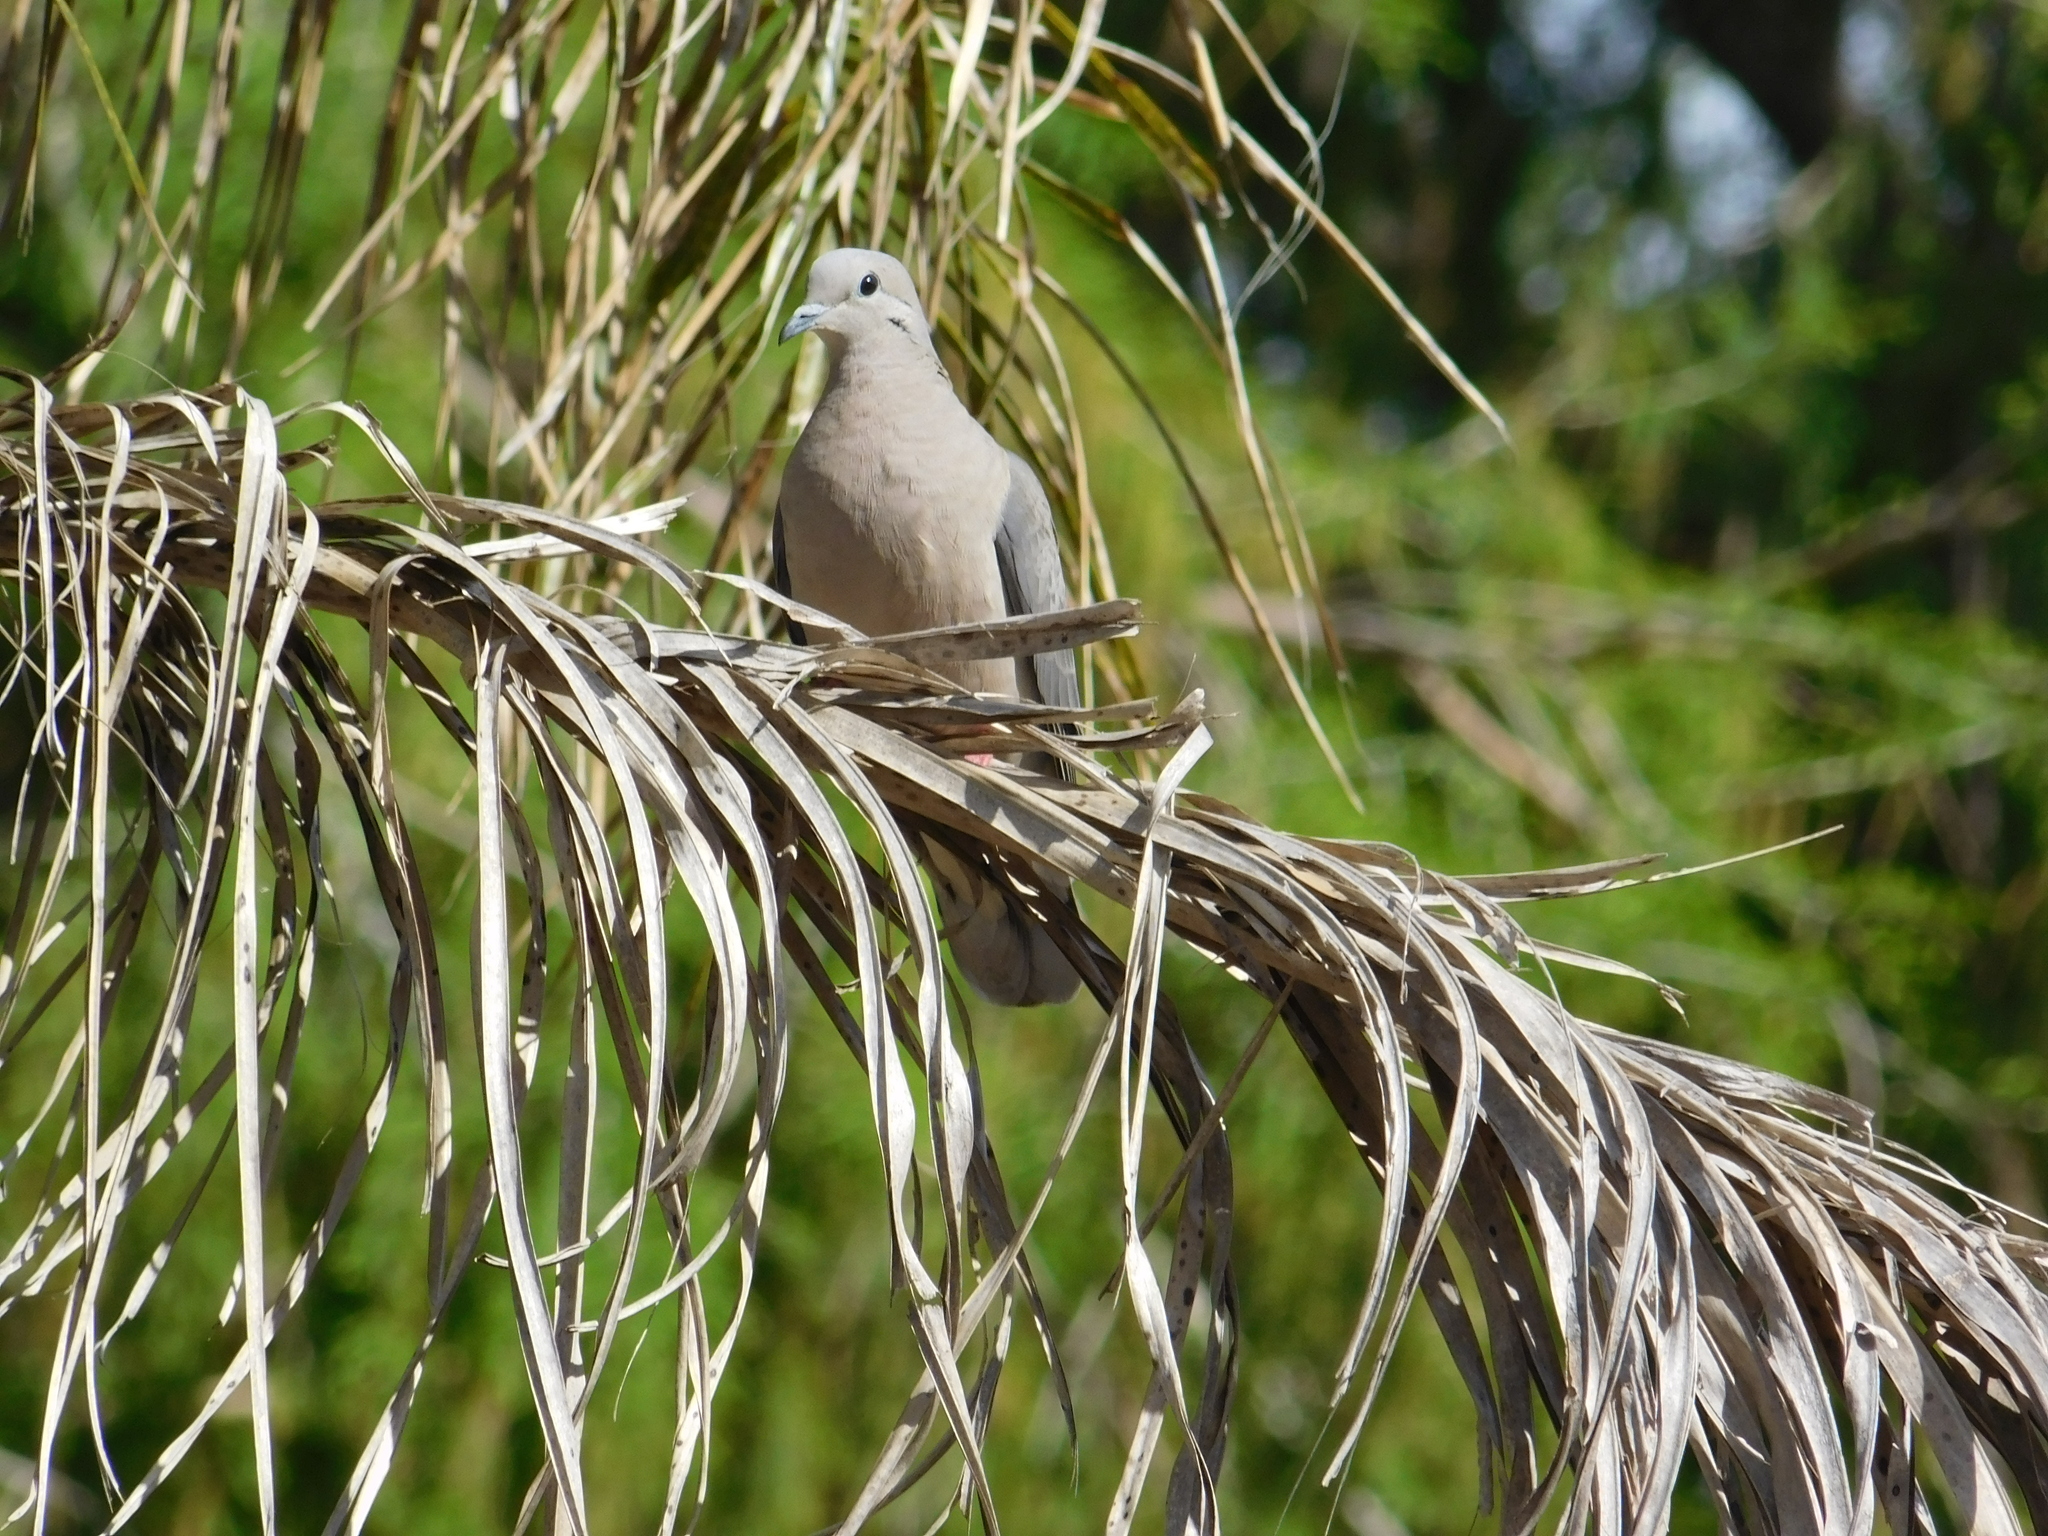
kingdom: Animalia
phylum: Chordata
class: Aves
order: Columbiformes
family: Columbidae
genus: Zenaida
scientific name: Zenaida auriculata
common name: Eared dove
